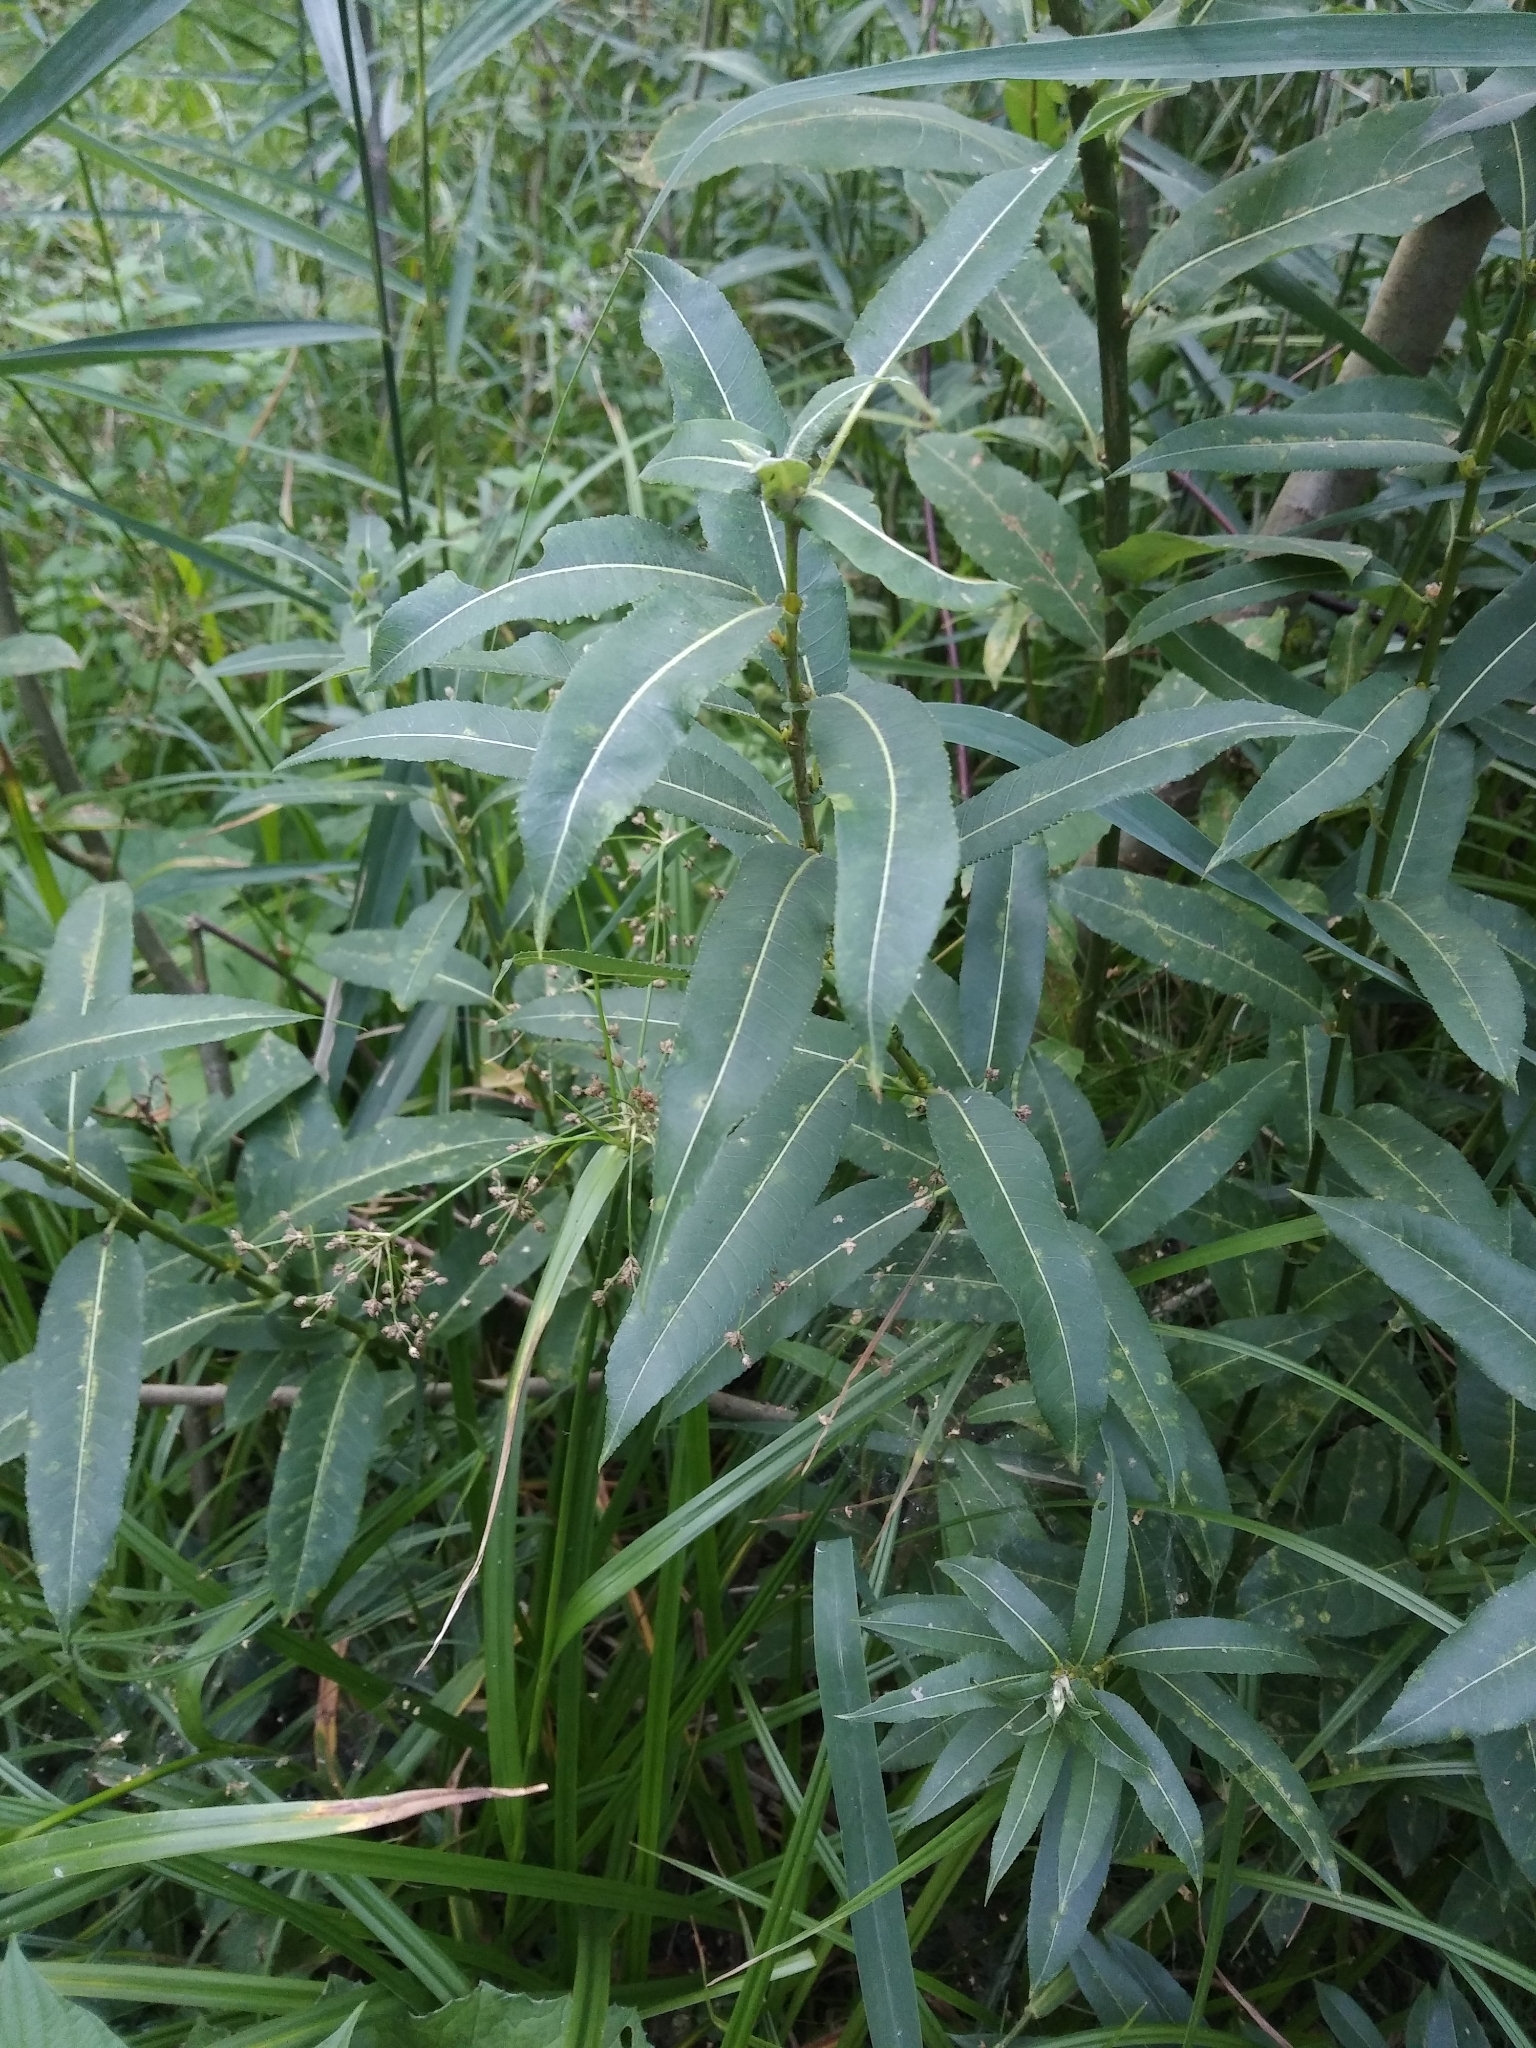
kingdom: Plantae
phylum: Tracheophyta
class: Magnoliopsida
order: Malpighiales
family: Salicaceae
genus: Salix
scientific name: Salix triandra
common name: Almond willow
